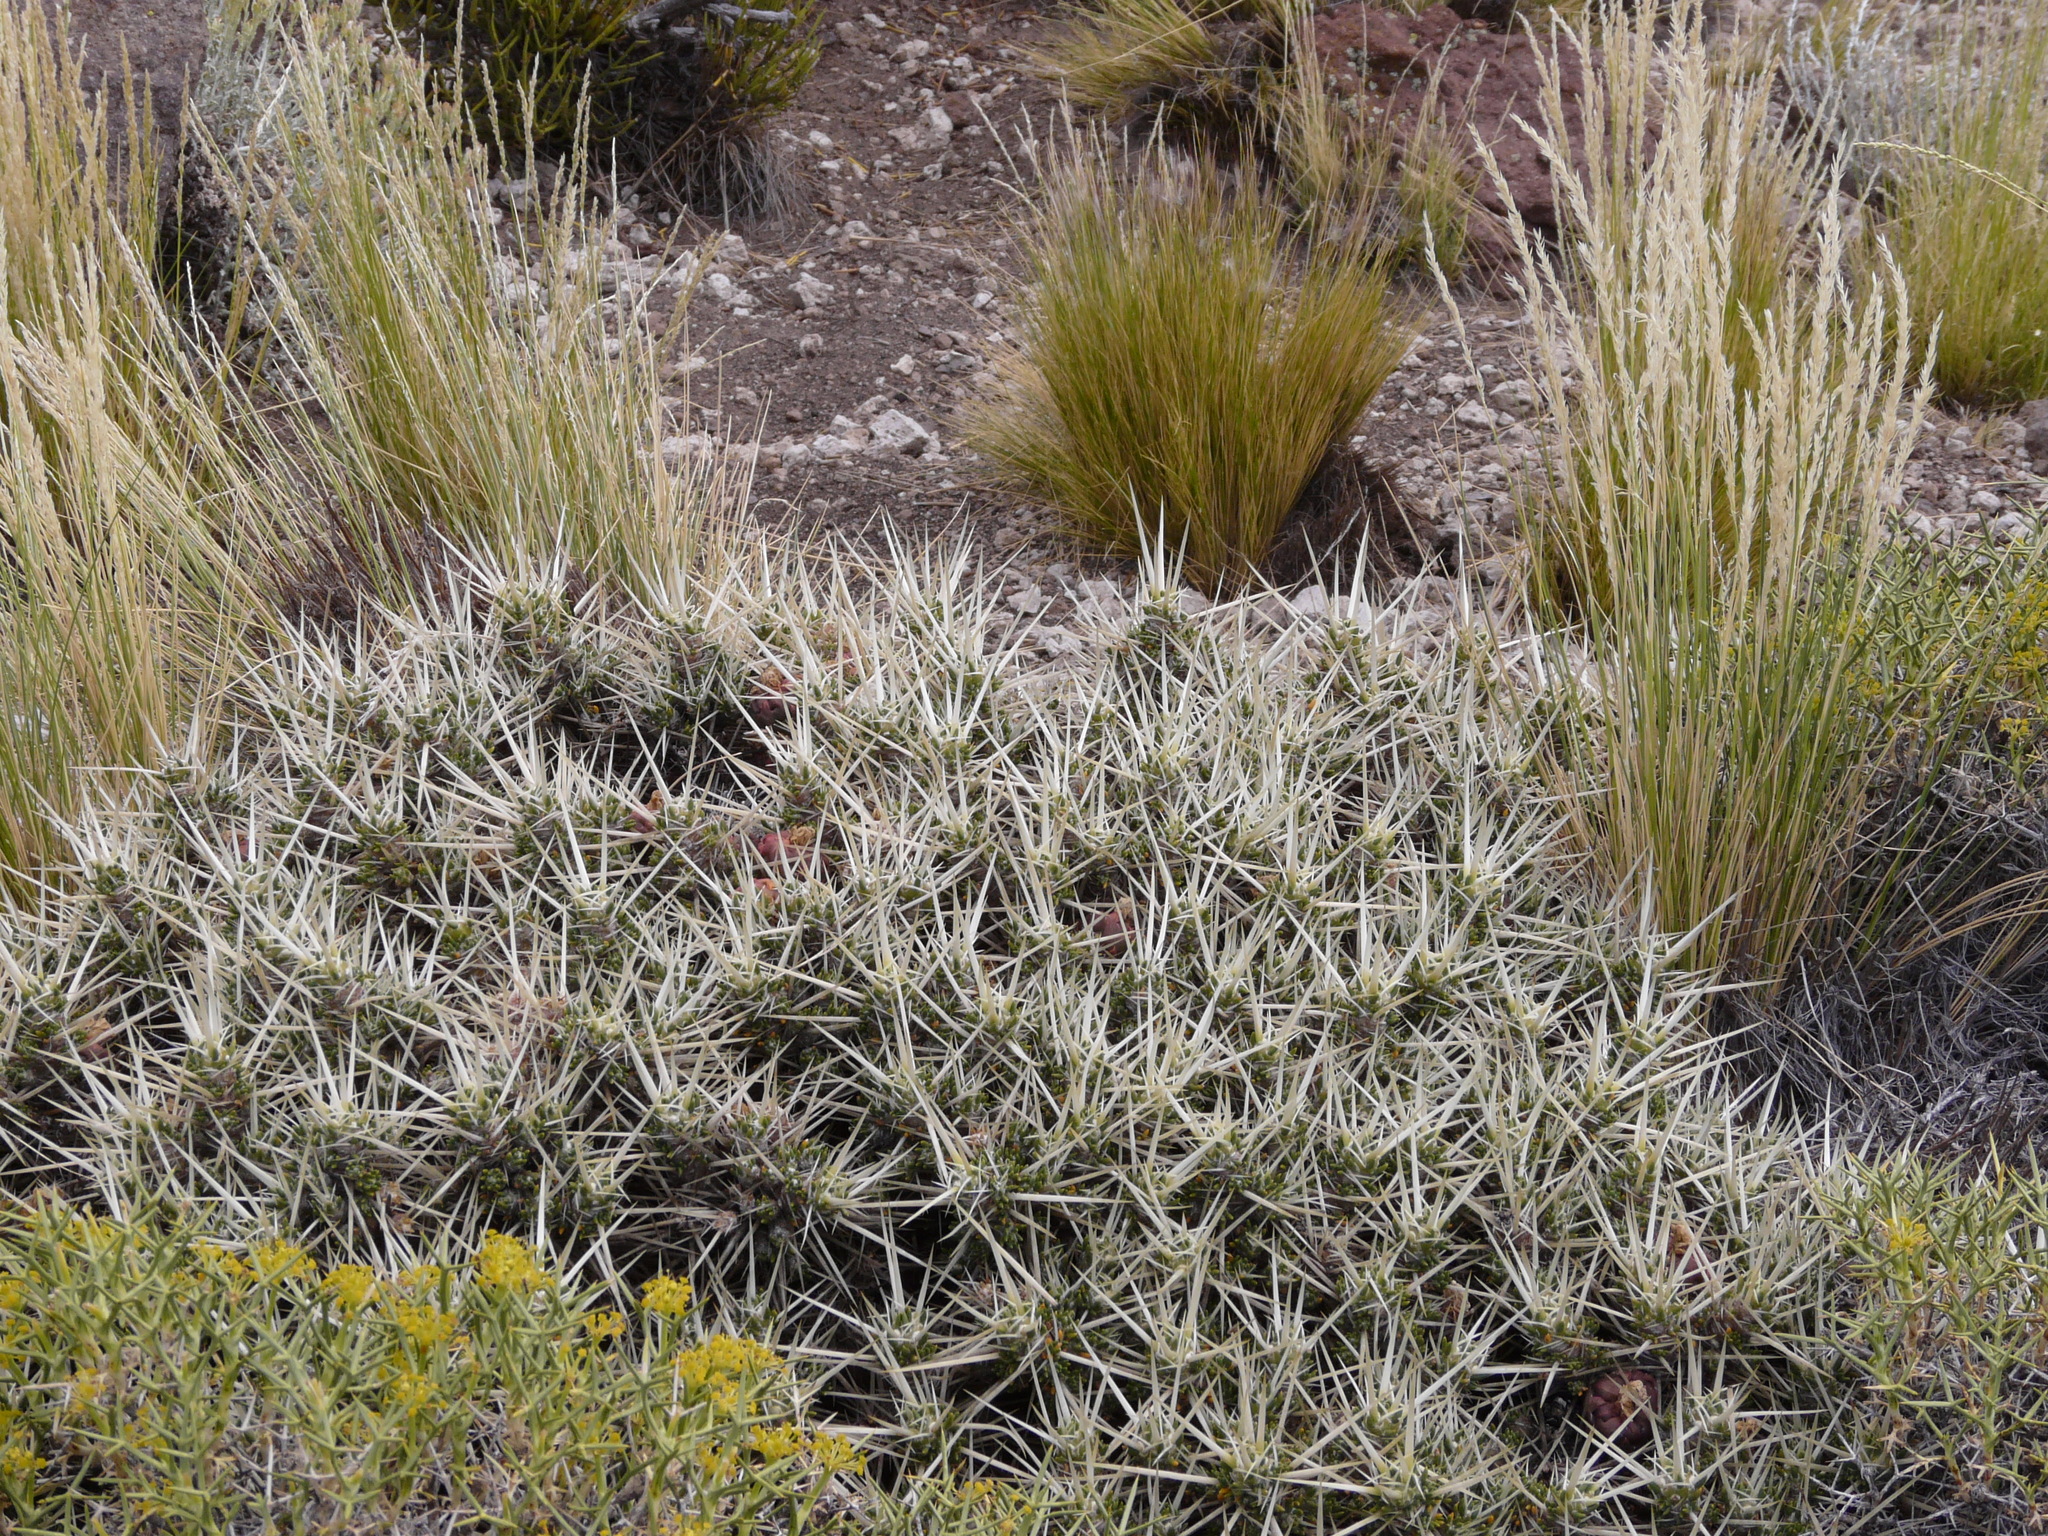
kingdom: Plantae
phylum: Tracheophyta
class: Magnoliopsida
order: Caryophyllales
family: Cactaceae
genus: Maihuenia
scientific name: Maihuenia patagonica
